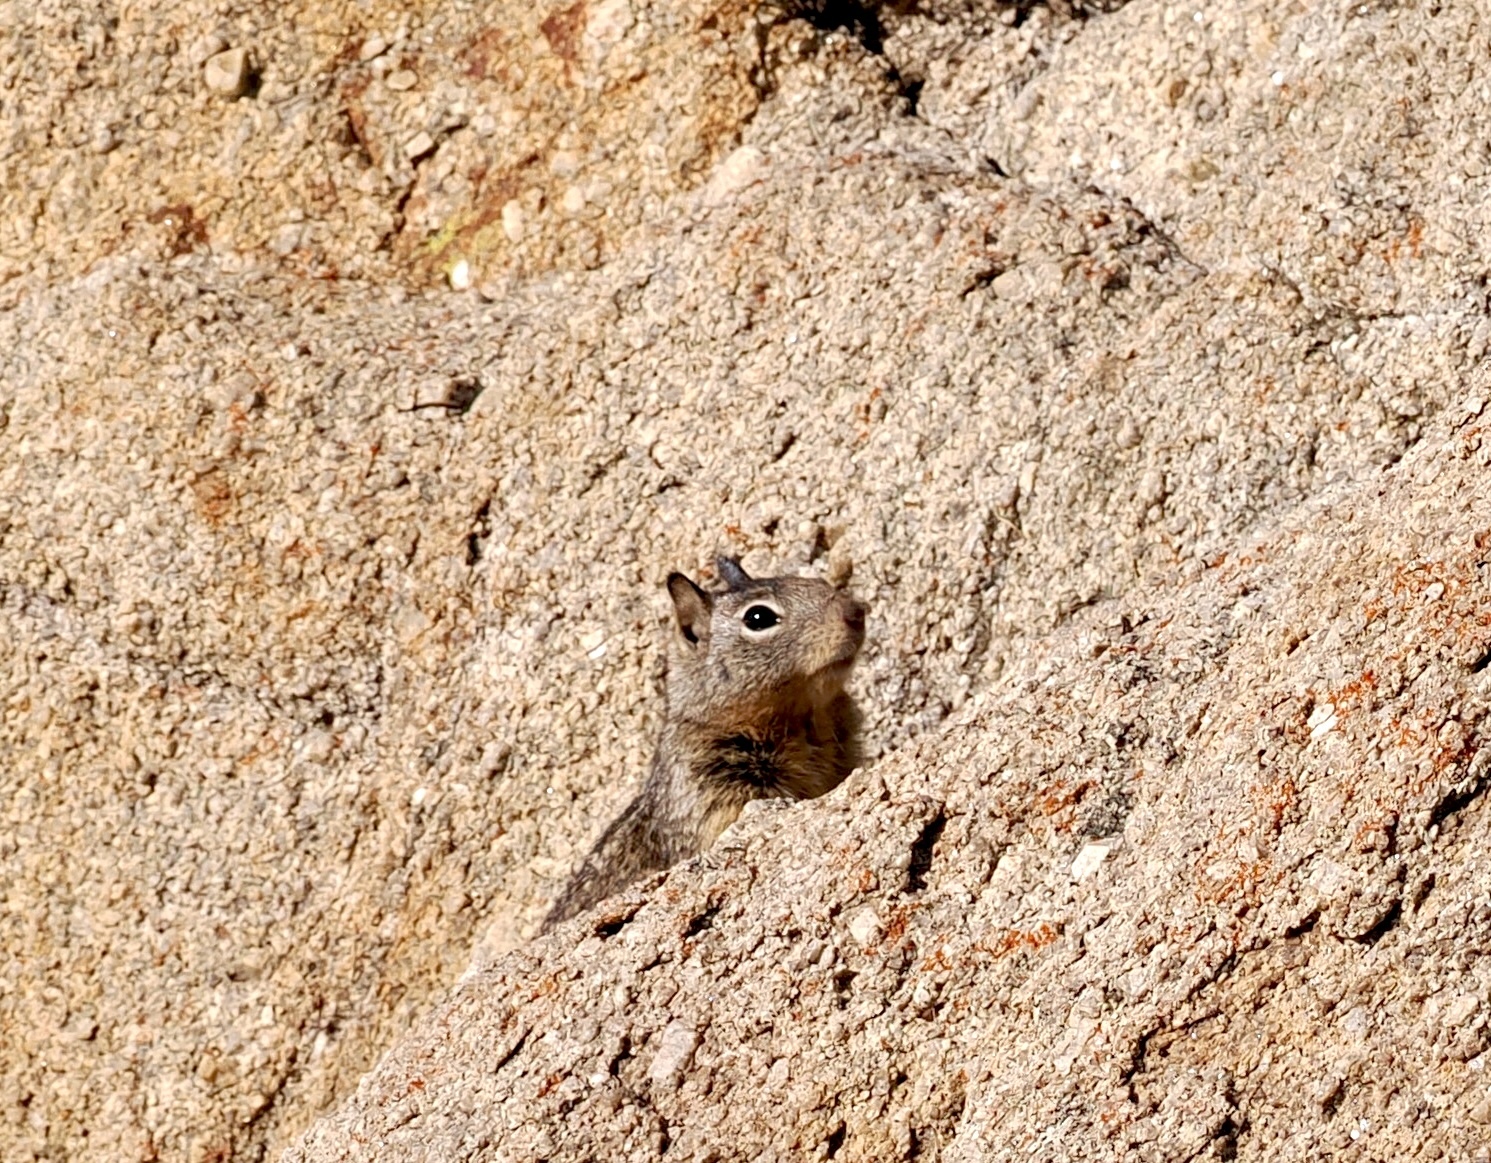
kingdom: Animalia
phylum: Chordata
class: Mammalia
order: Rodentia
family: Sciuridae
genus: Otospermophilus
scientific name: Otospermophilus beecheyi
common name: California ground squirrel
